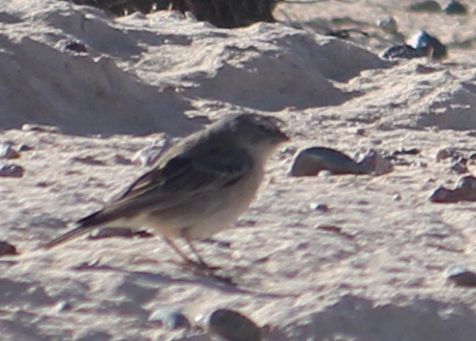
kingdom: Animalia
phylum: Chordata
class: Aves
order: Passeriformes
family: Thraupidae
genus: Geospizopsis
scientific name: Geospizopsis plebejus
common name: Ash-breasted sierra-finch
